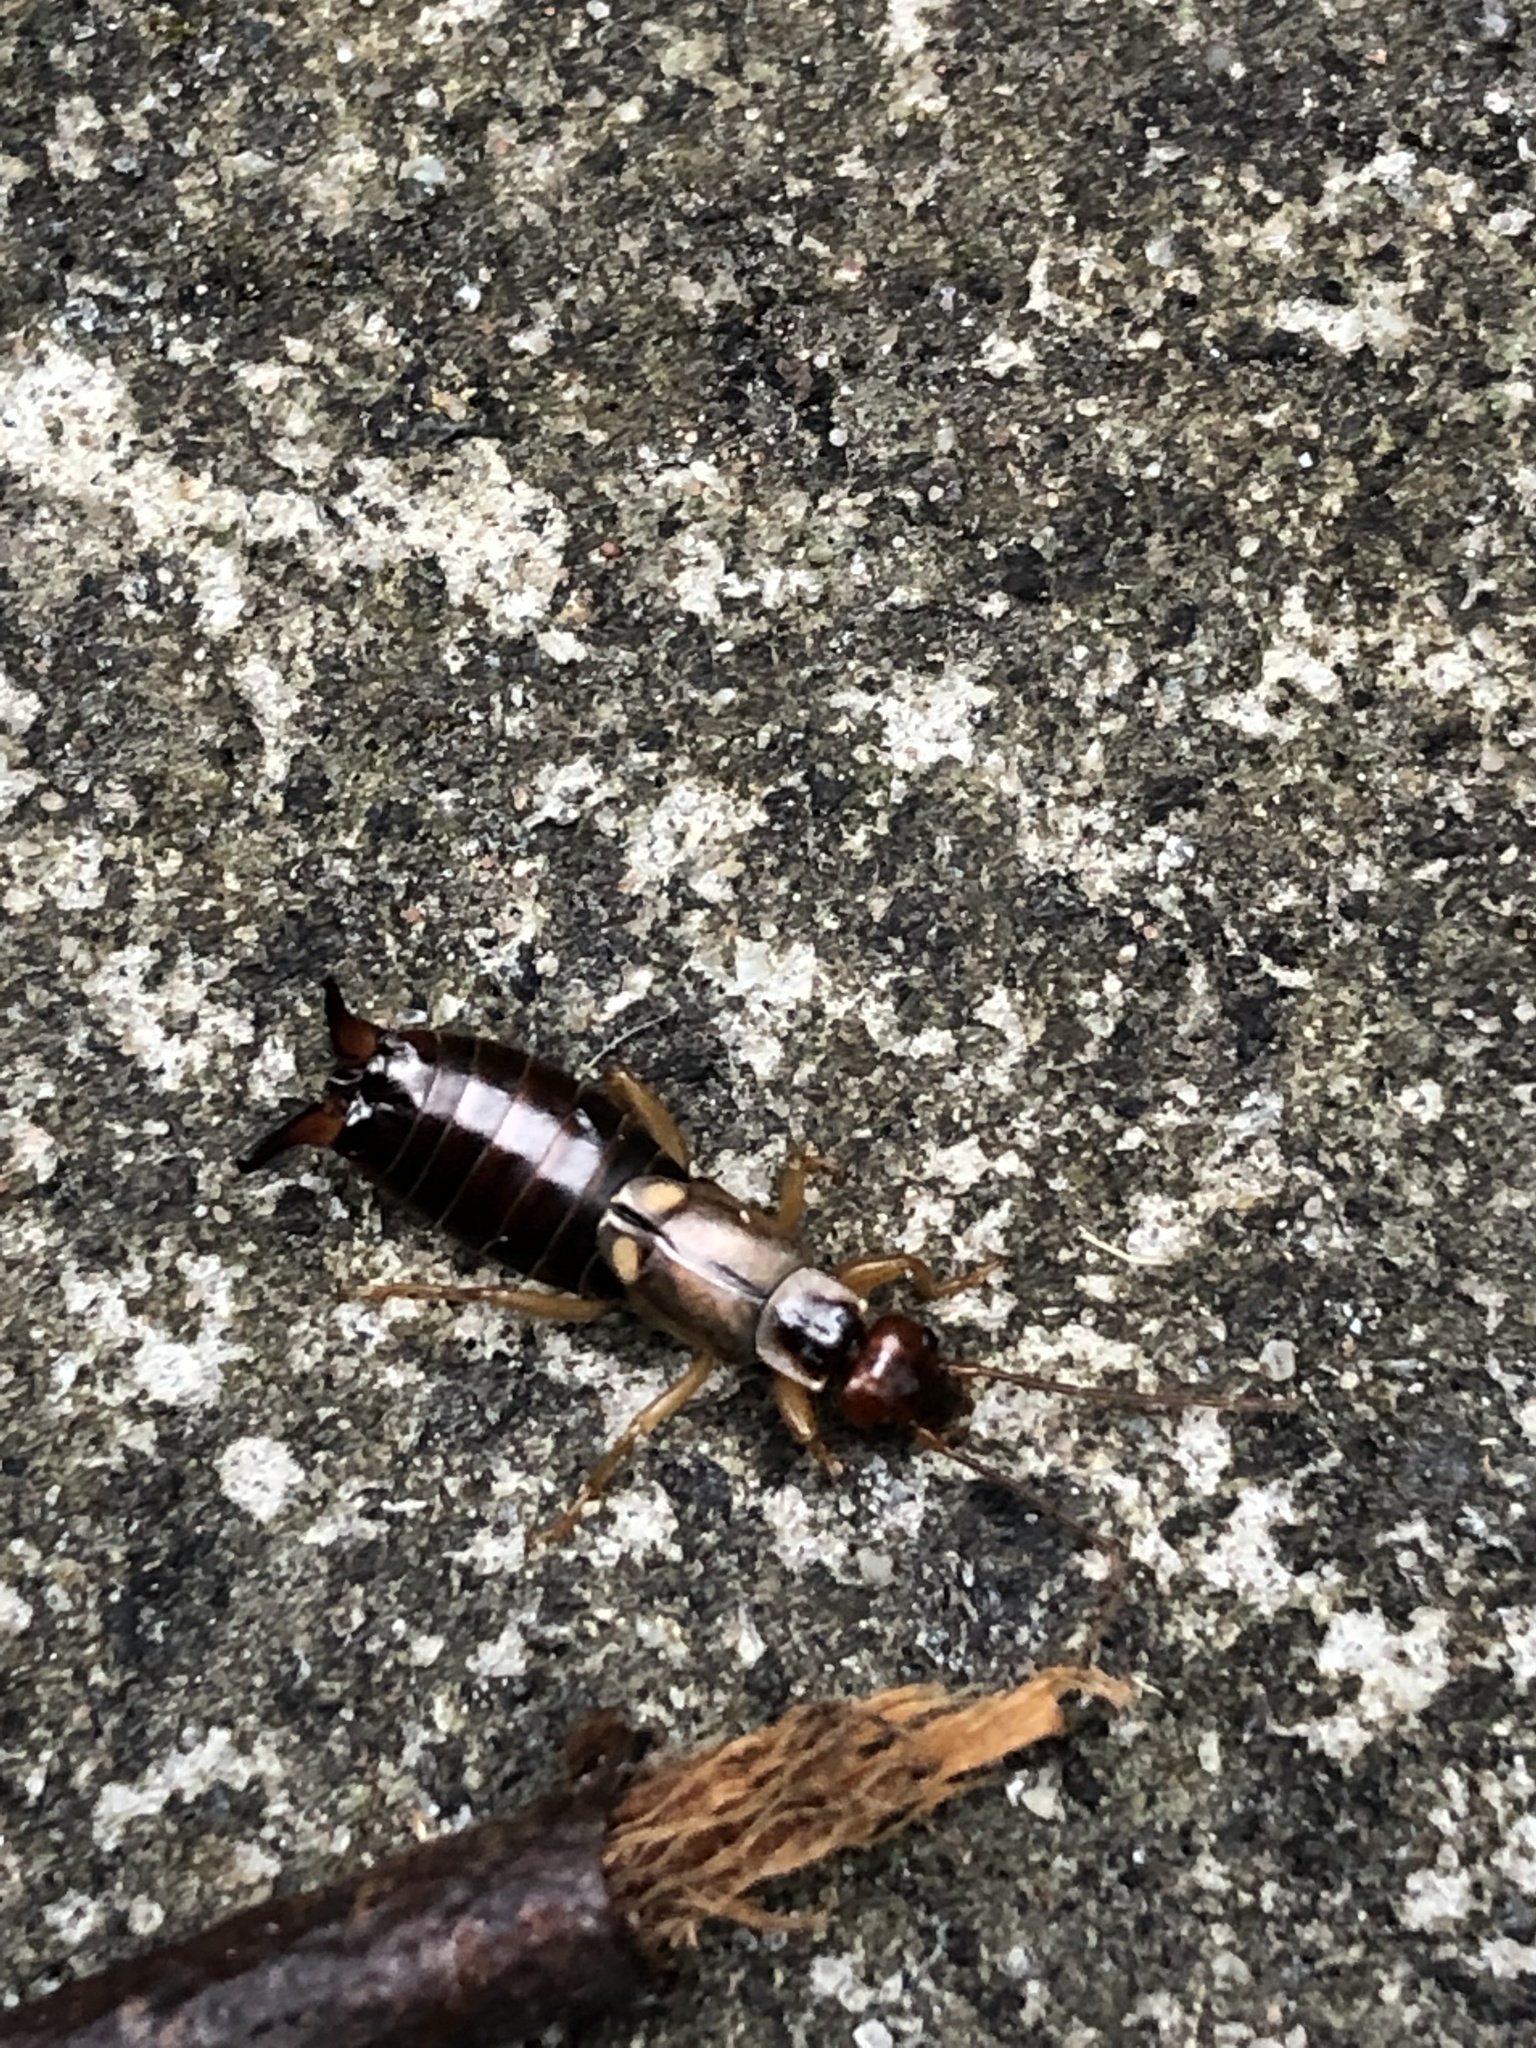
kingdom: Animalia
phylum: Arthropoda
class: Insecta
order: Dermaptera
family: Forficulidae
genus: Forficula
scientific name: Forficula
